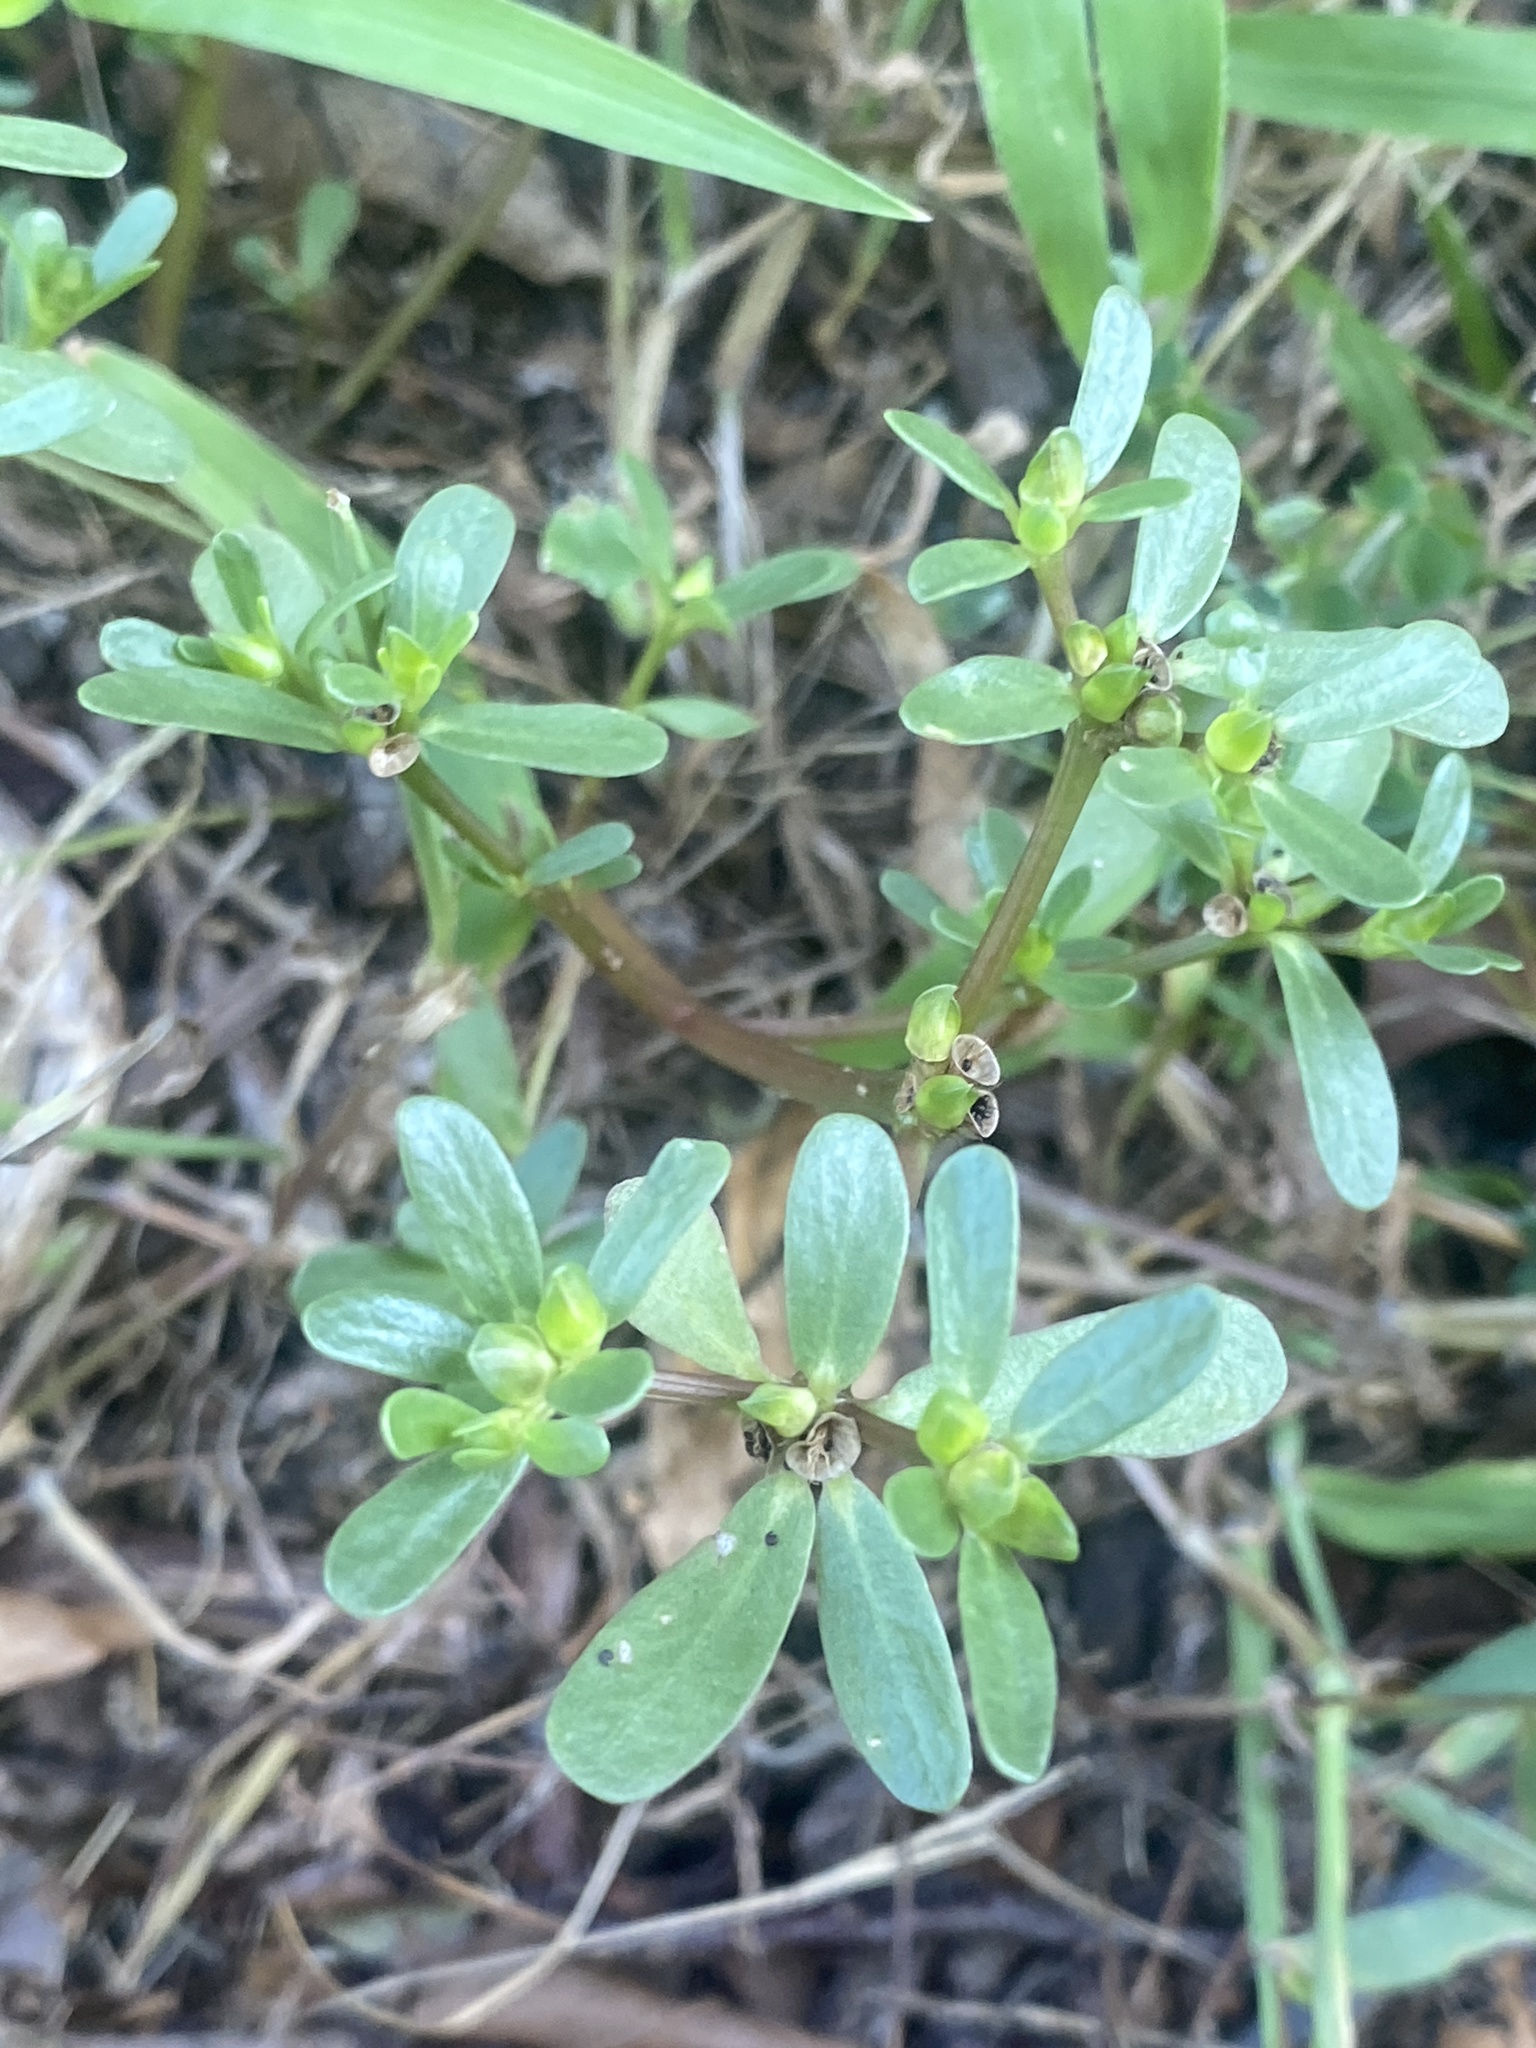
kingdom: Plantae
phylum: Tracheophyta
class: Magnoliopsida
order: Caryophyllales
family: Portulacaceae
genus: Portulaca
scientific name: Portulaca oleracea
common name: Common purslane
